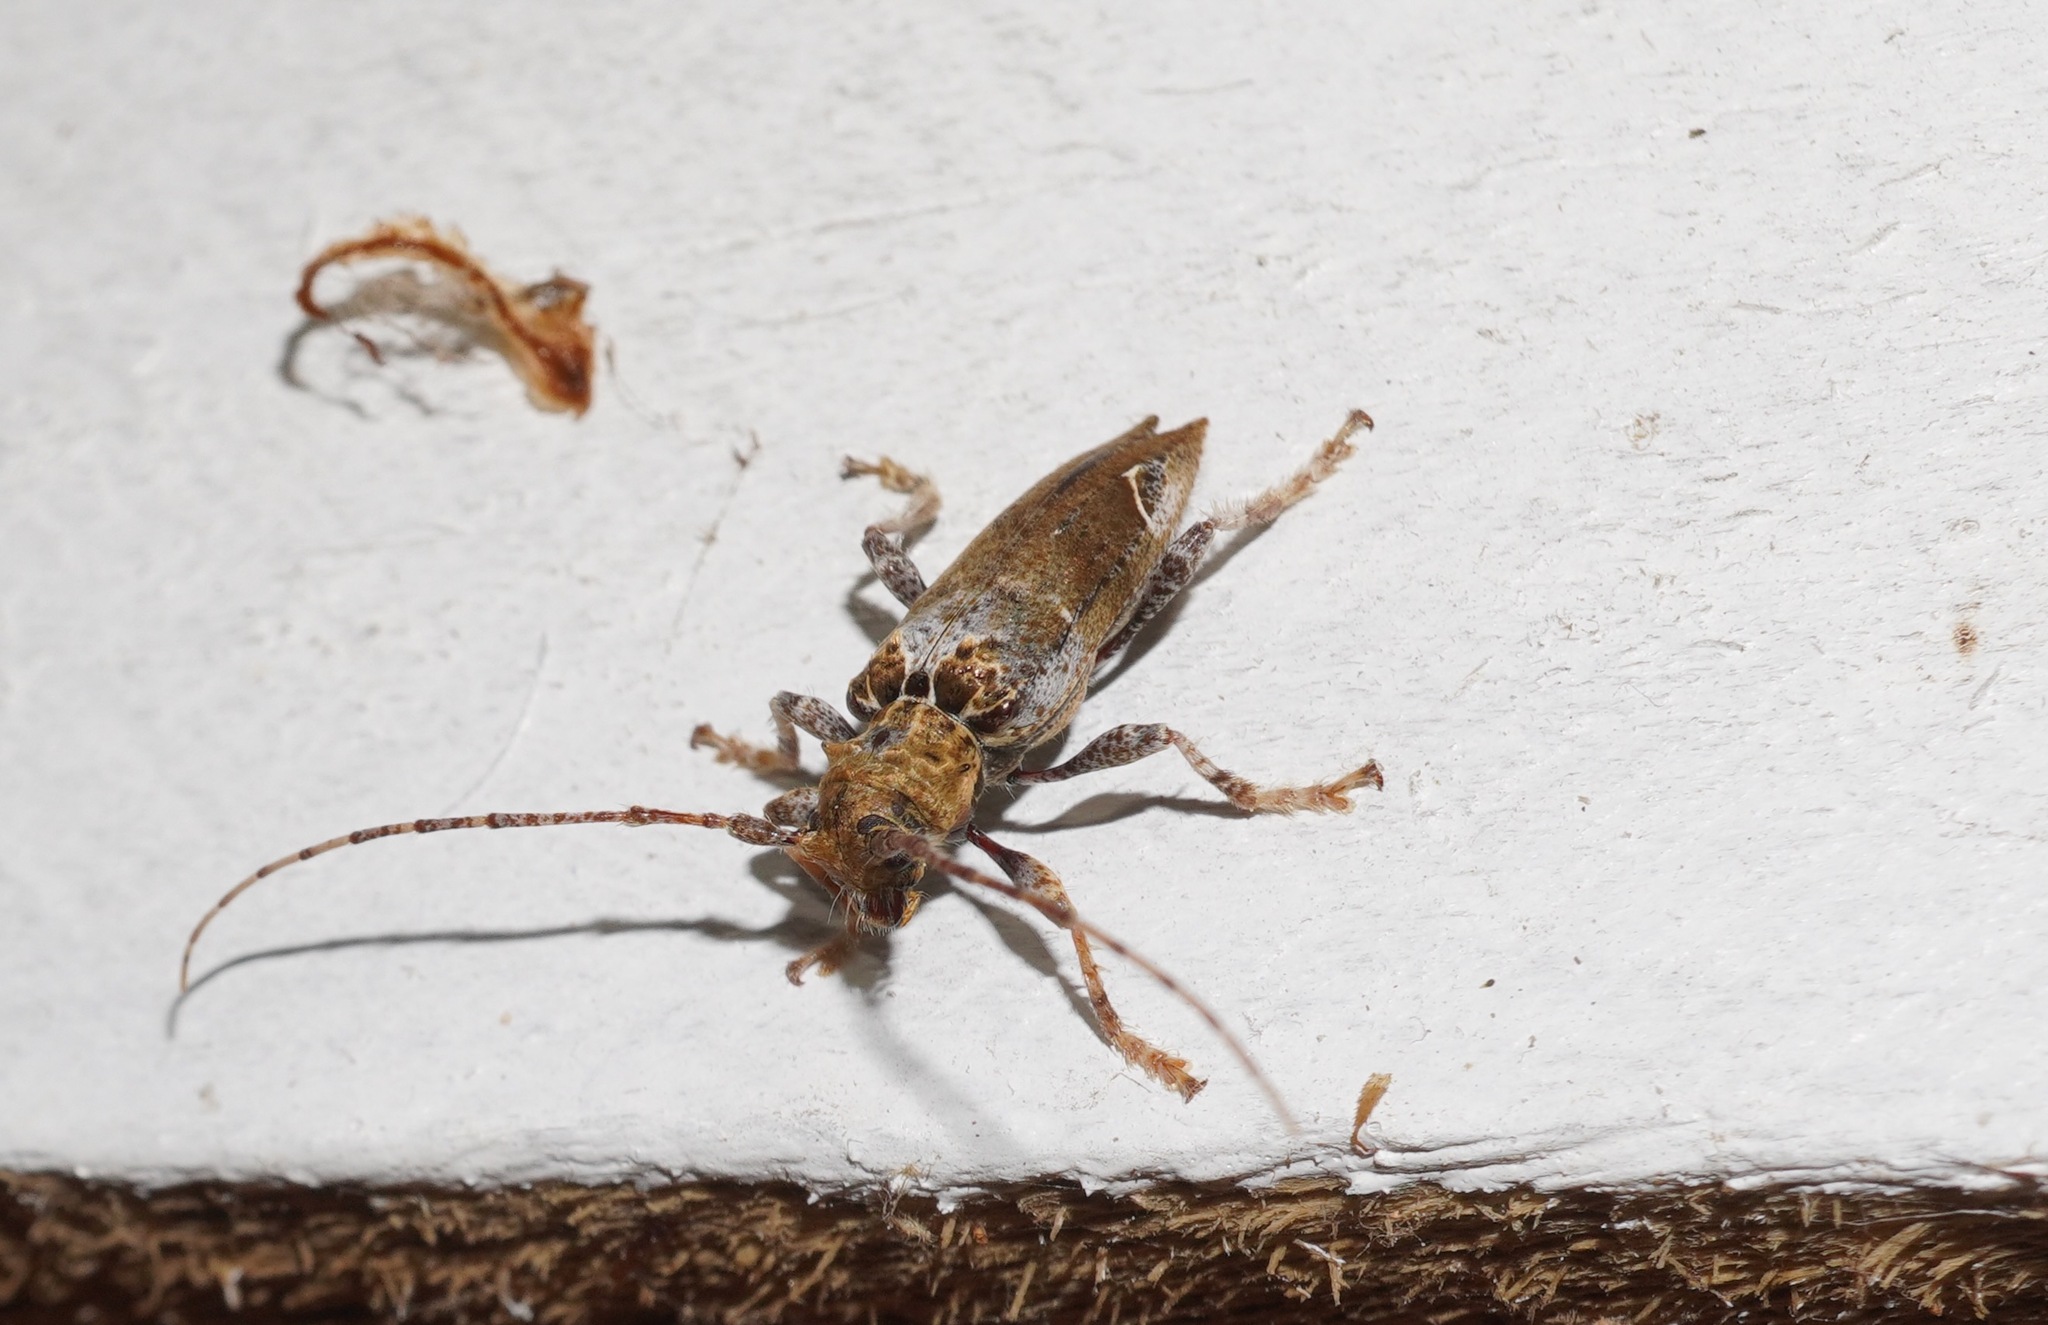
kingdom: Animalia
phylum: Arthropoda
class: Insecta
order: Coleoptera
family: Cerambycidae
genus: Tetrorea
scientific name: Tetrorea cilipes
